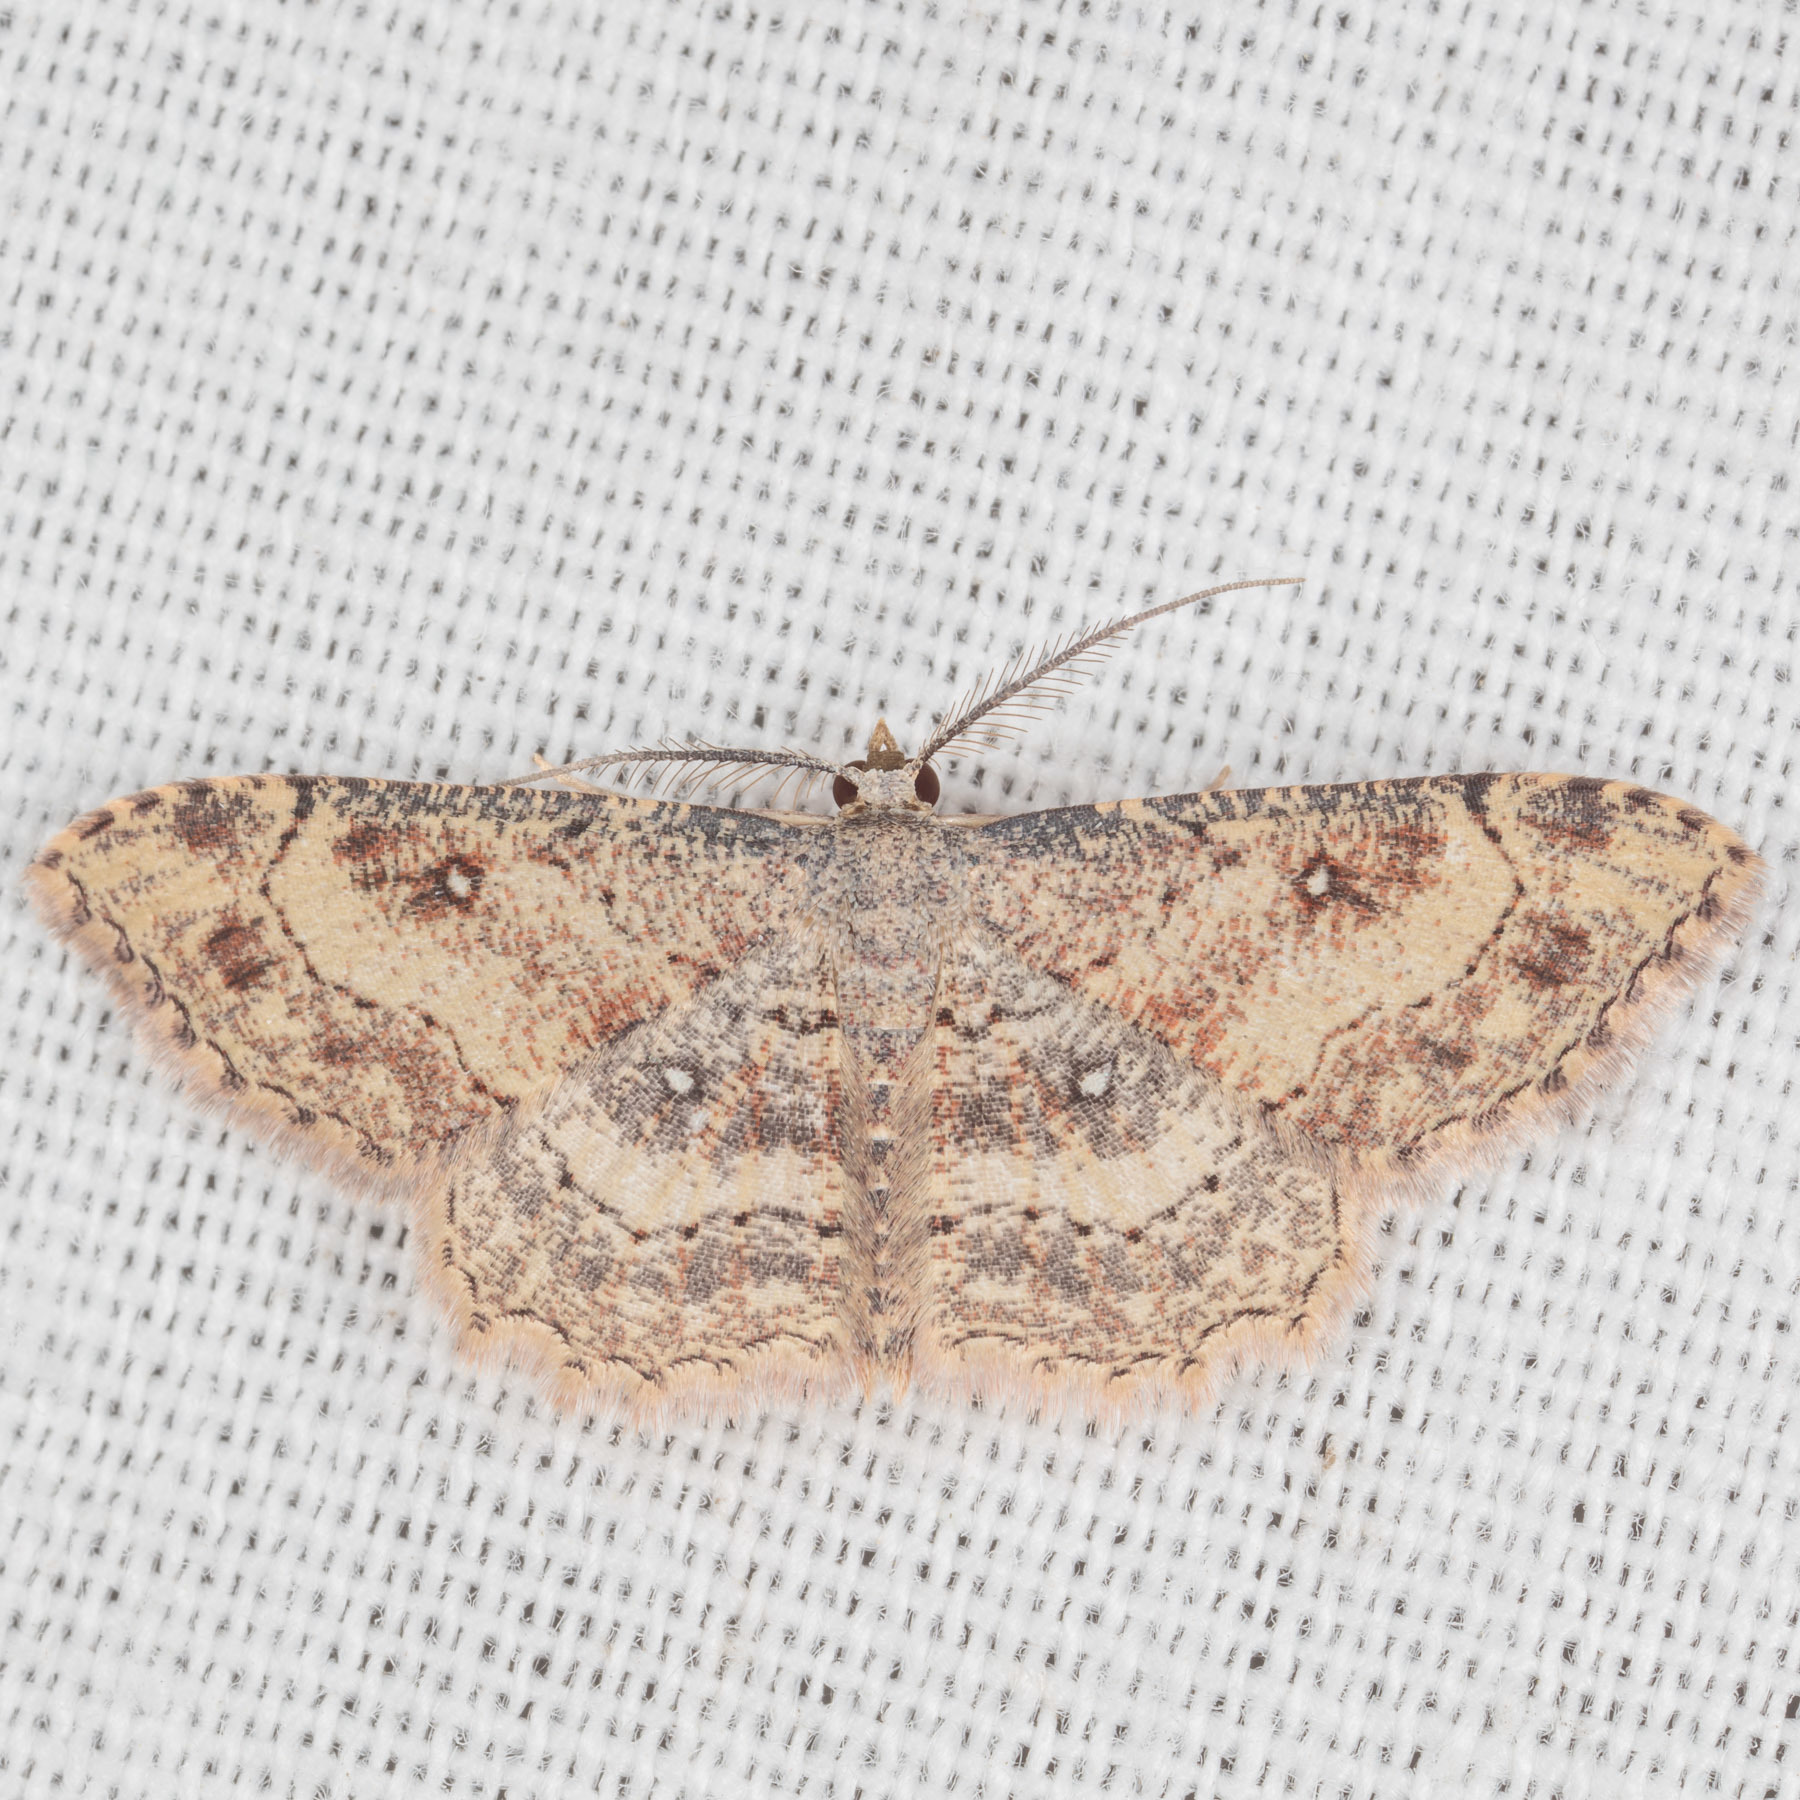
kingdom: Animalia
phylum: Arthropoda
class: Insecta
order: Lepidoptera
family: Geometridae
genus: Cyclophora
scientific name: Cyclophora nanaria
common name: Cankerworm
